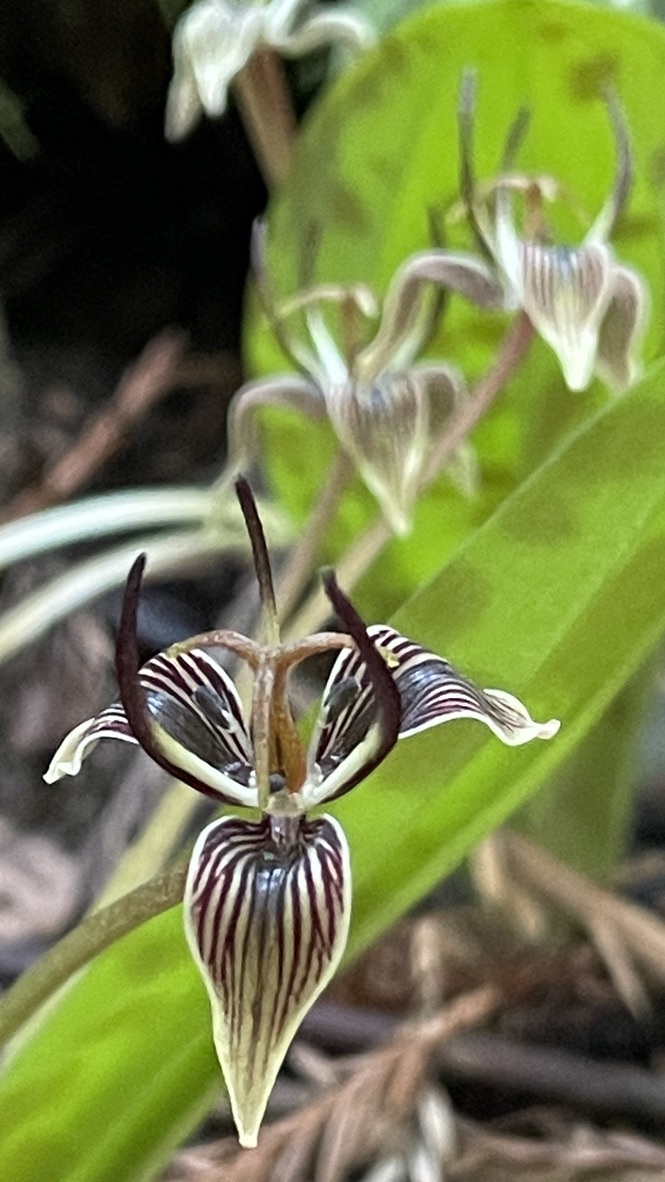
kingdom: Plantae
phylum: Tracheophyta
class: Liliopsida
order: Liliales
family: Liliaceae
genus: Scoliopus
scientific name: Scoliopus bigelovii
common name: Foetid adder's-tongue
